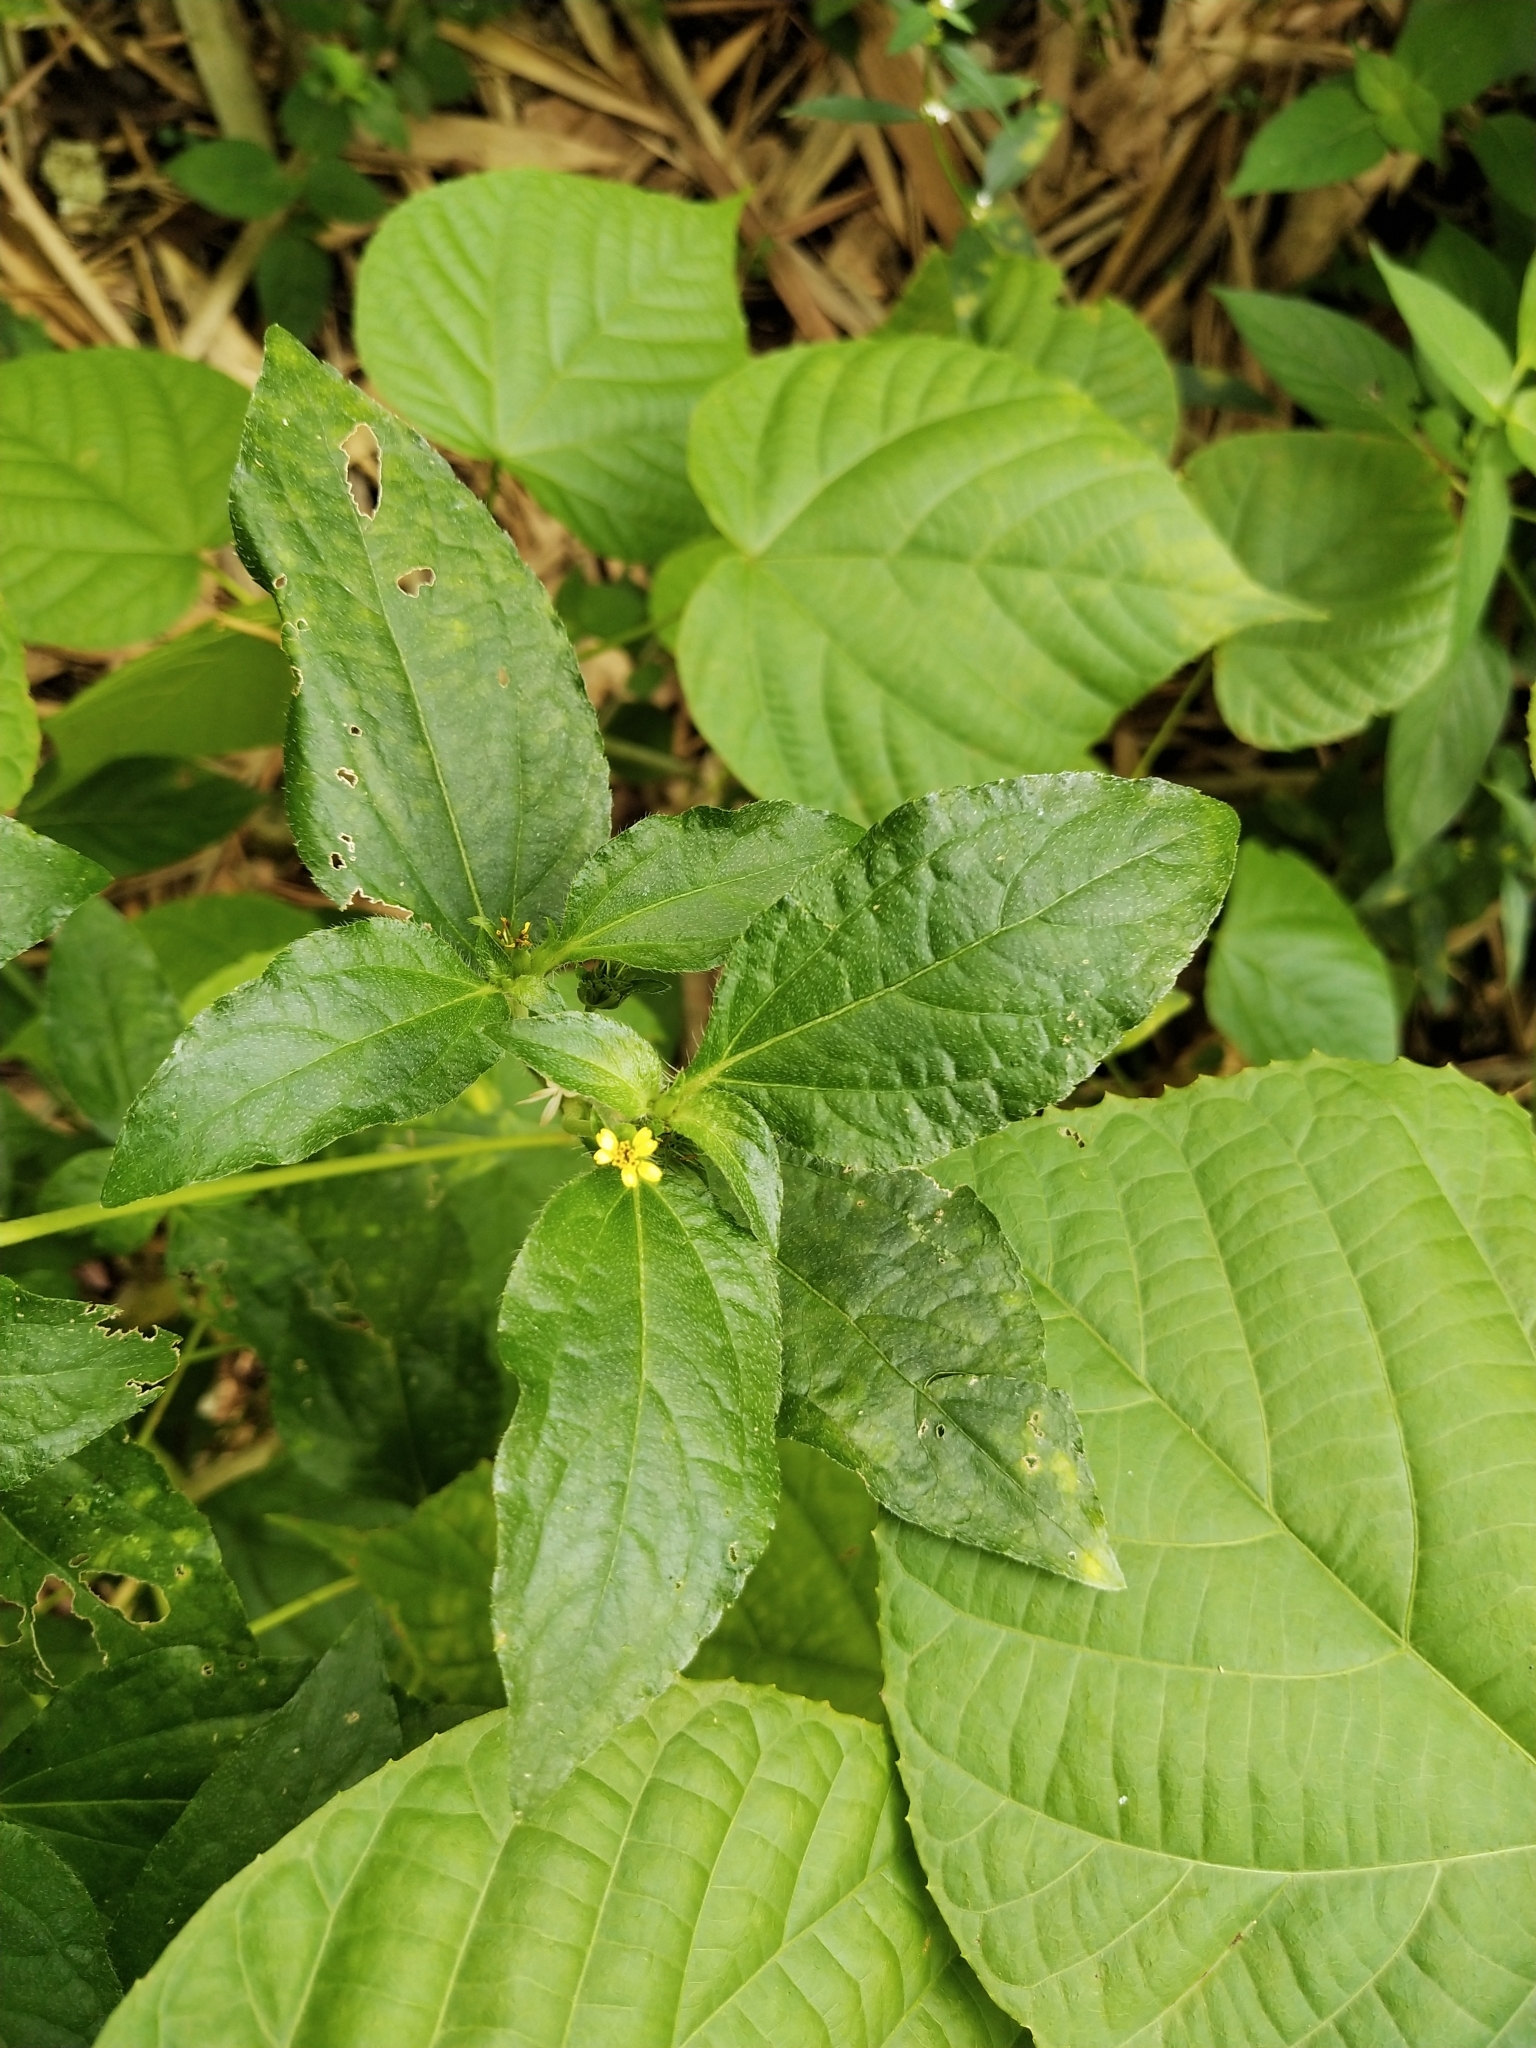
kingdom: Plantae
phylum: Tracheophyta
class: Magnoliopsida
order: Asterales
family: Asteraceae
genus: Synedrella
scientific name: Synedrella nodiflora
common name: Nodeweed
